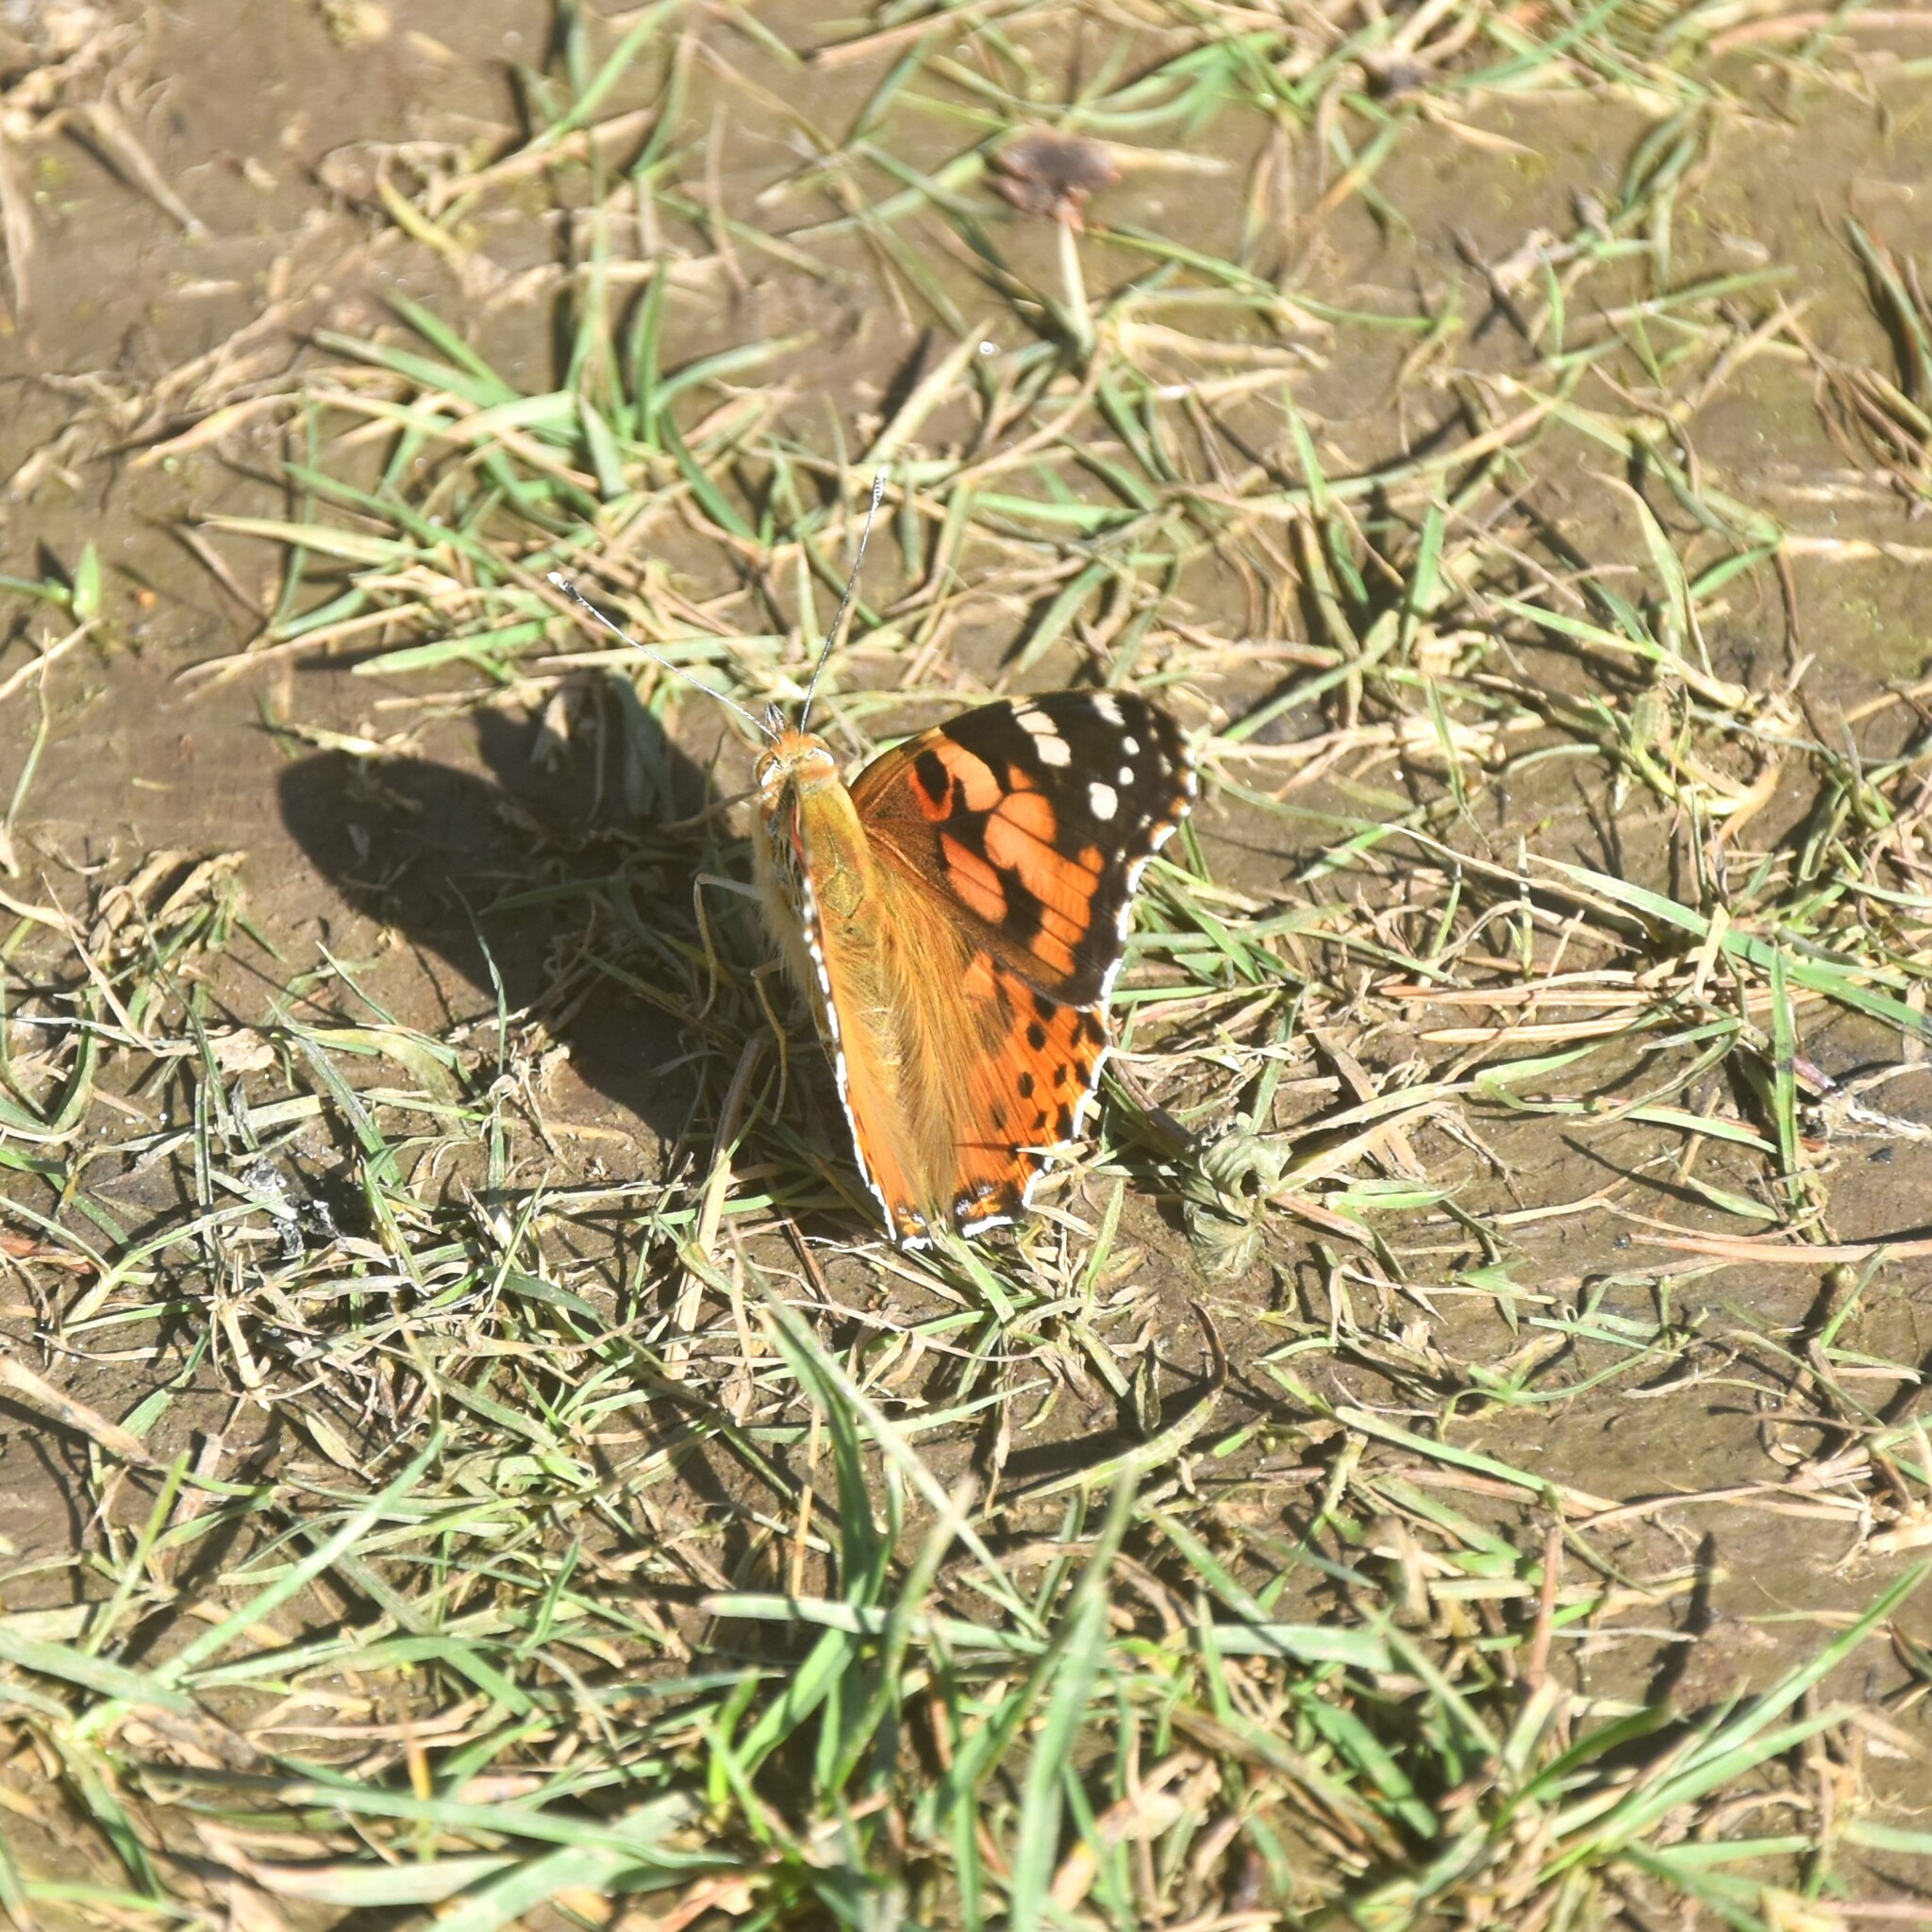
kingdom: Animalia
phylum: Arthropoda
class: Insecta
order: Lepidoptera
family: Nymphalidae
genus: Vanessa
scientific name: Vanessa cardui
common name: Painted lady
